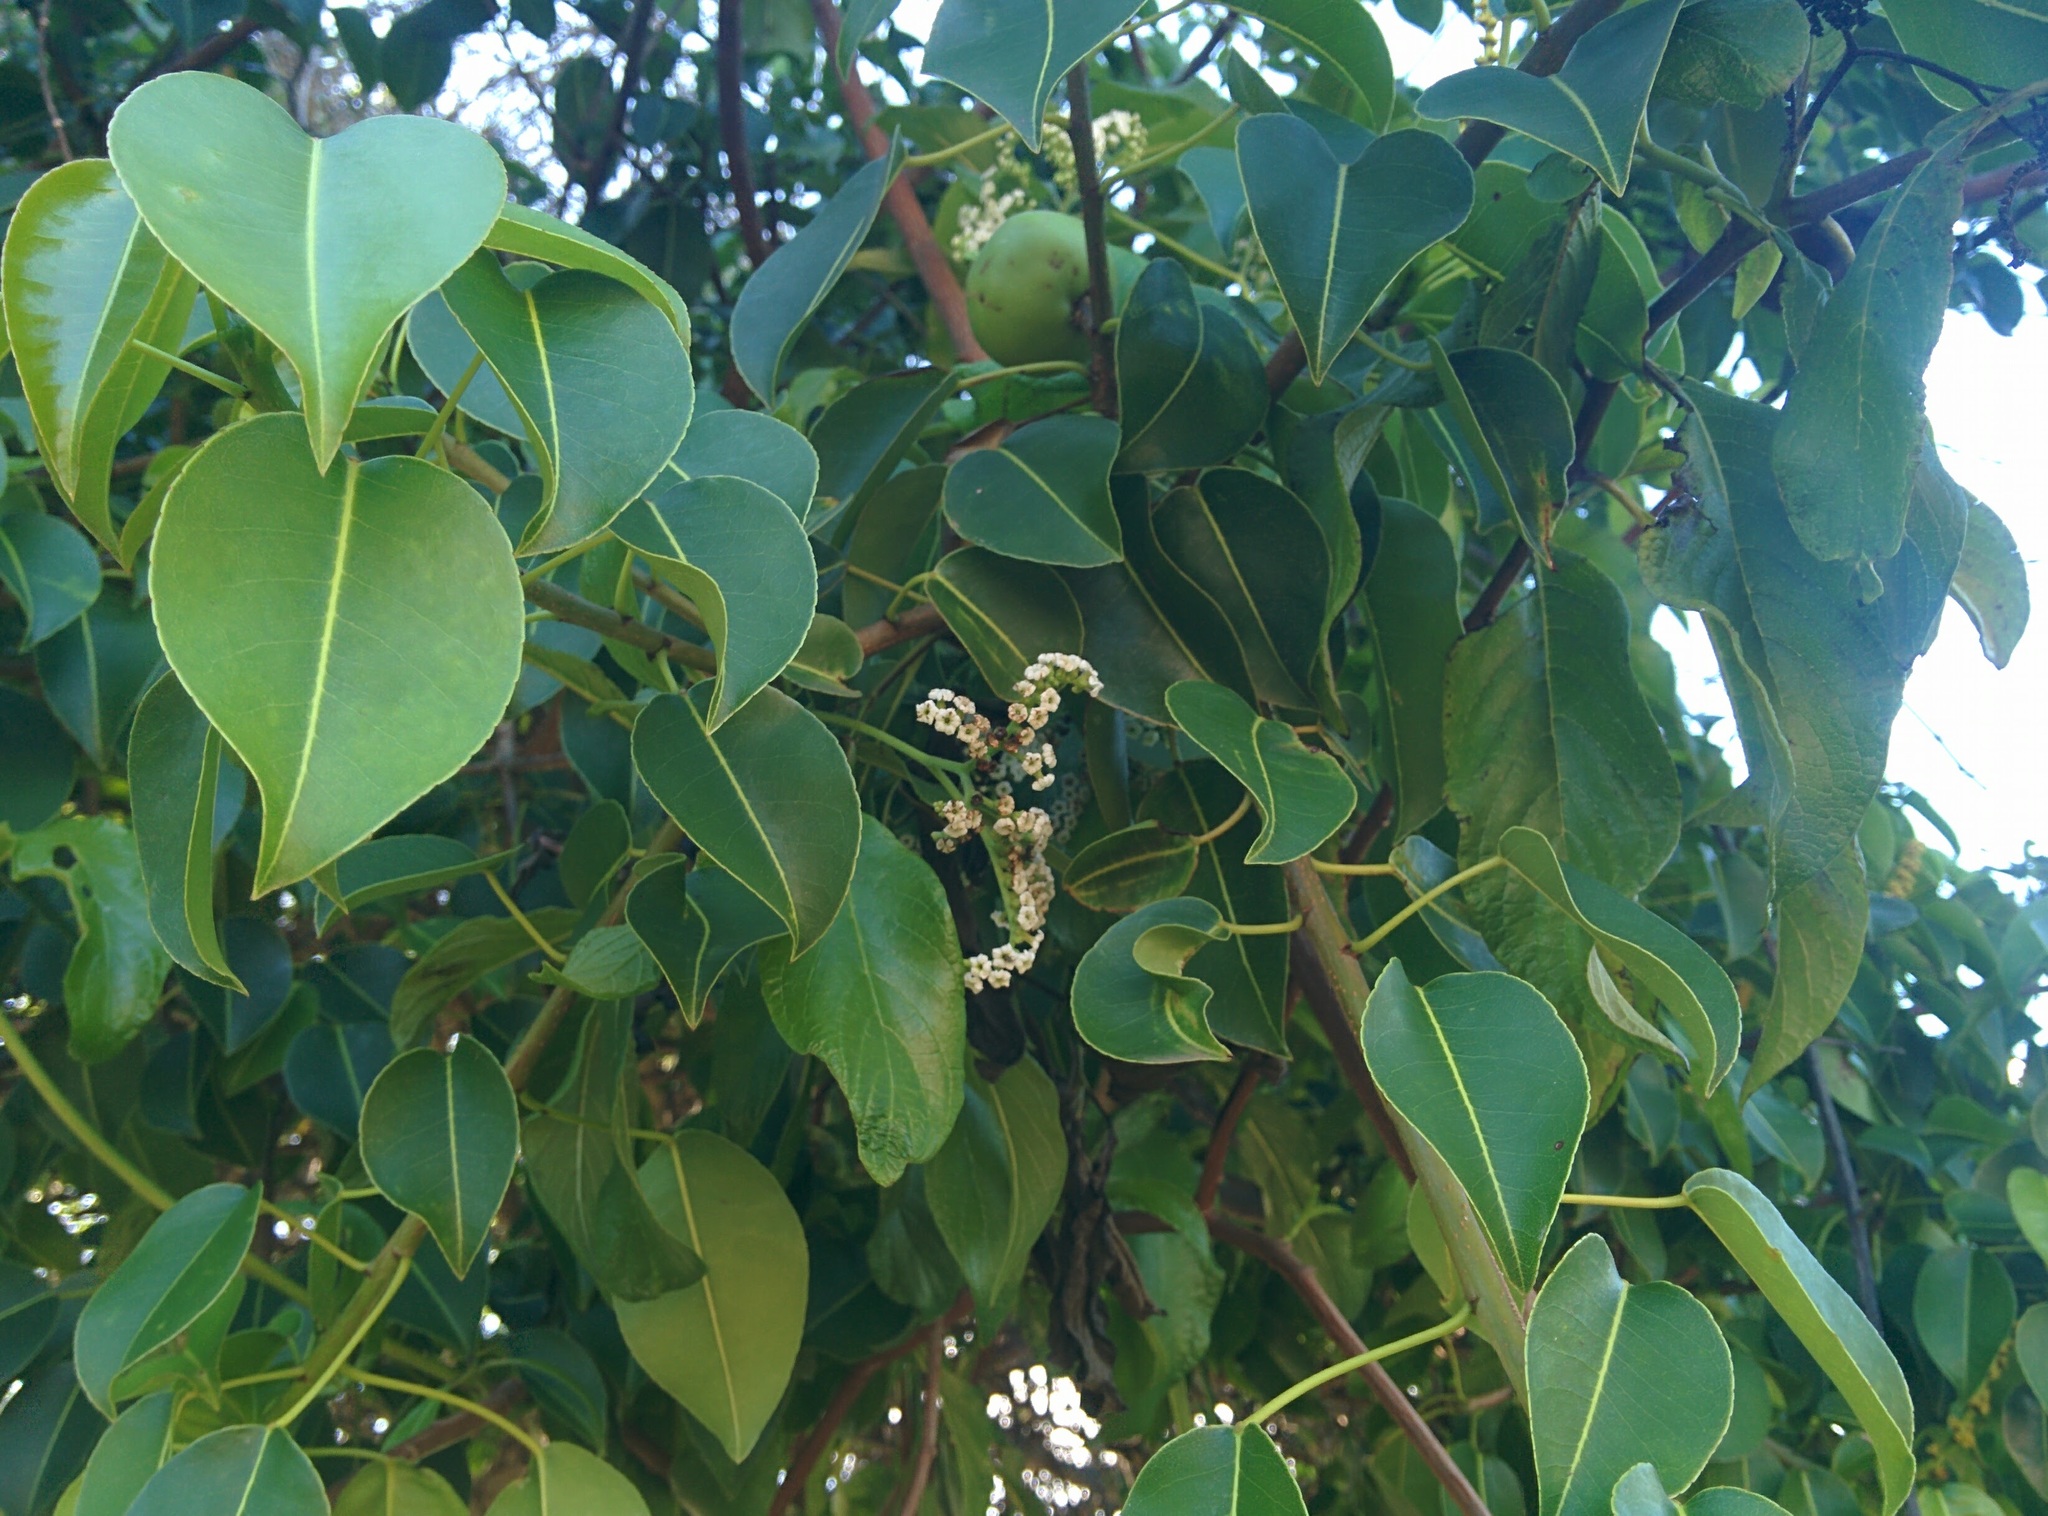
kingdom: Plantae
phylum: Tracheophyta
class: Magnoliopsida
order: Malpighiales
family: Euphorbiaceae
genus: Hippomane
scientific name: Hippomane mancinella
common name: Manchineel
